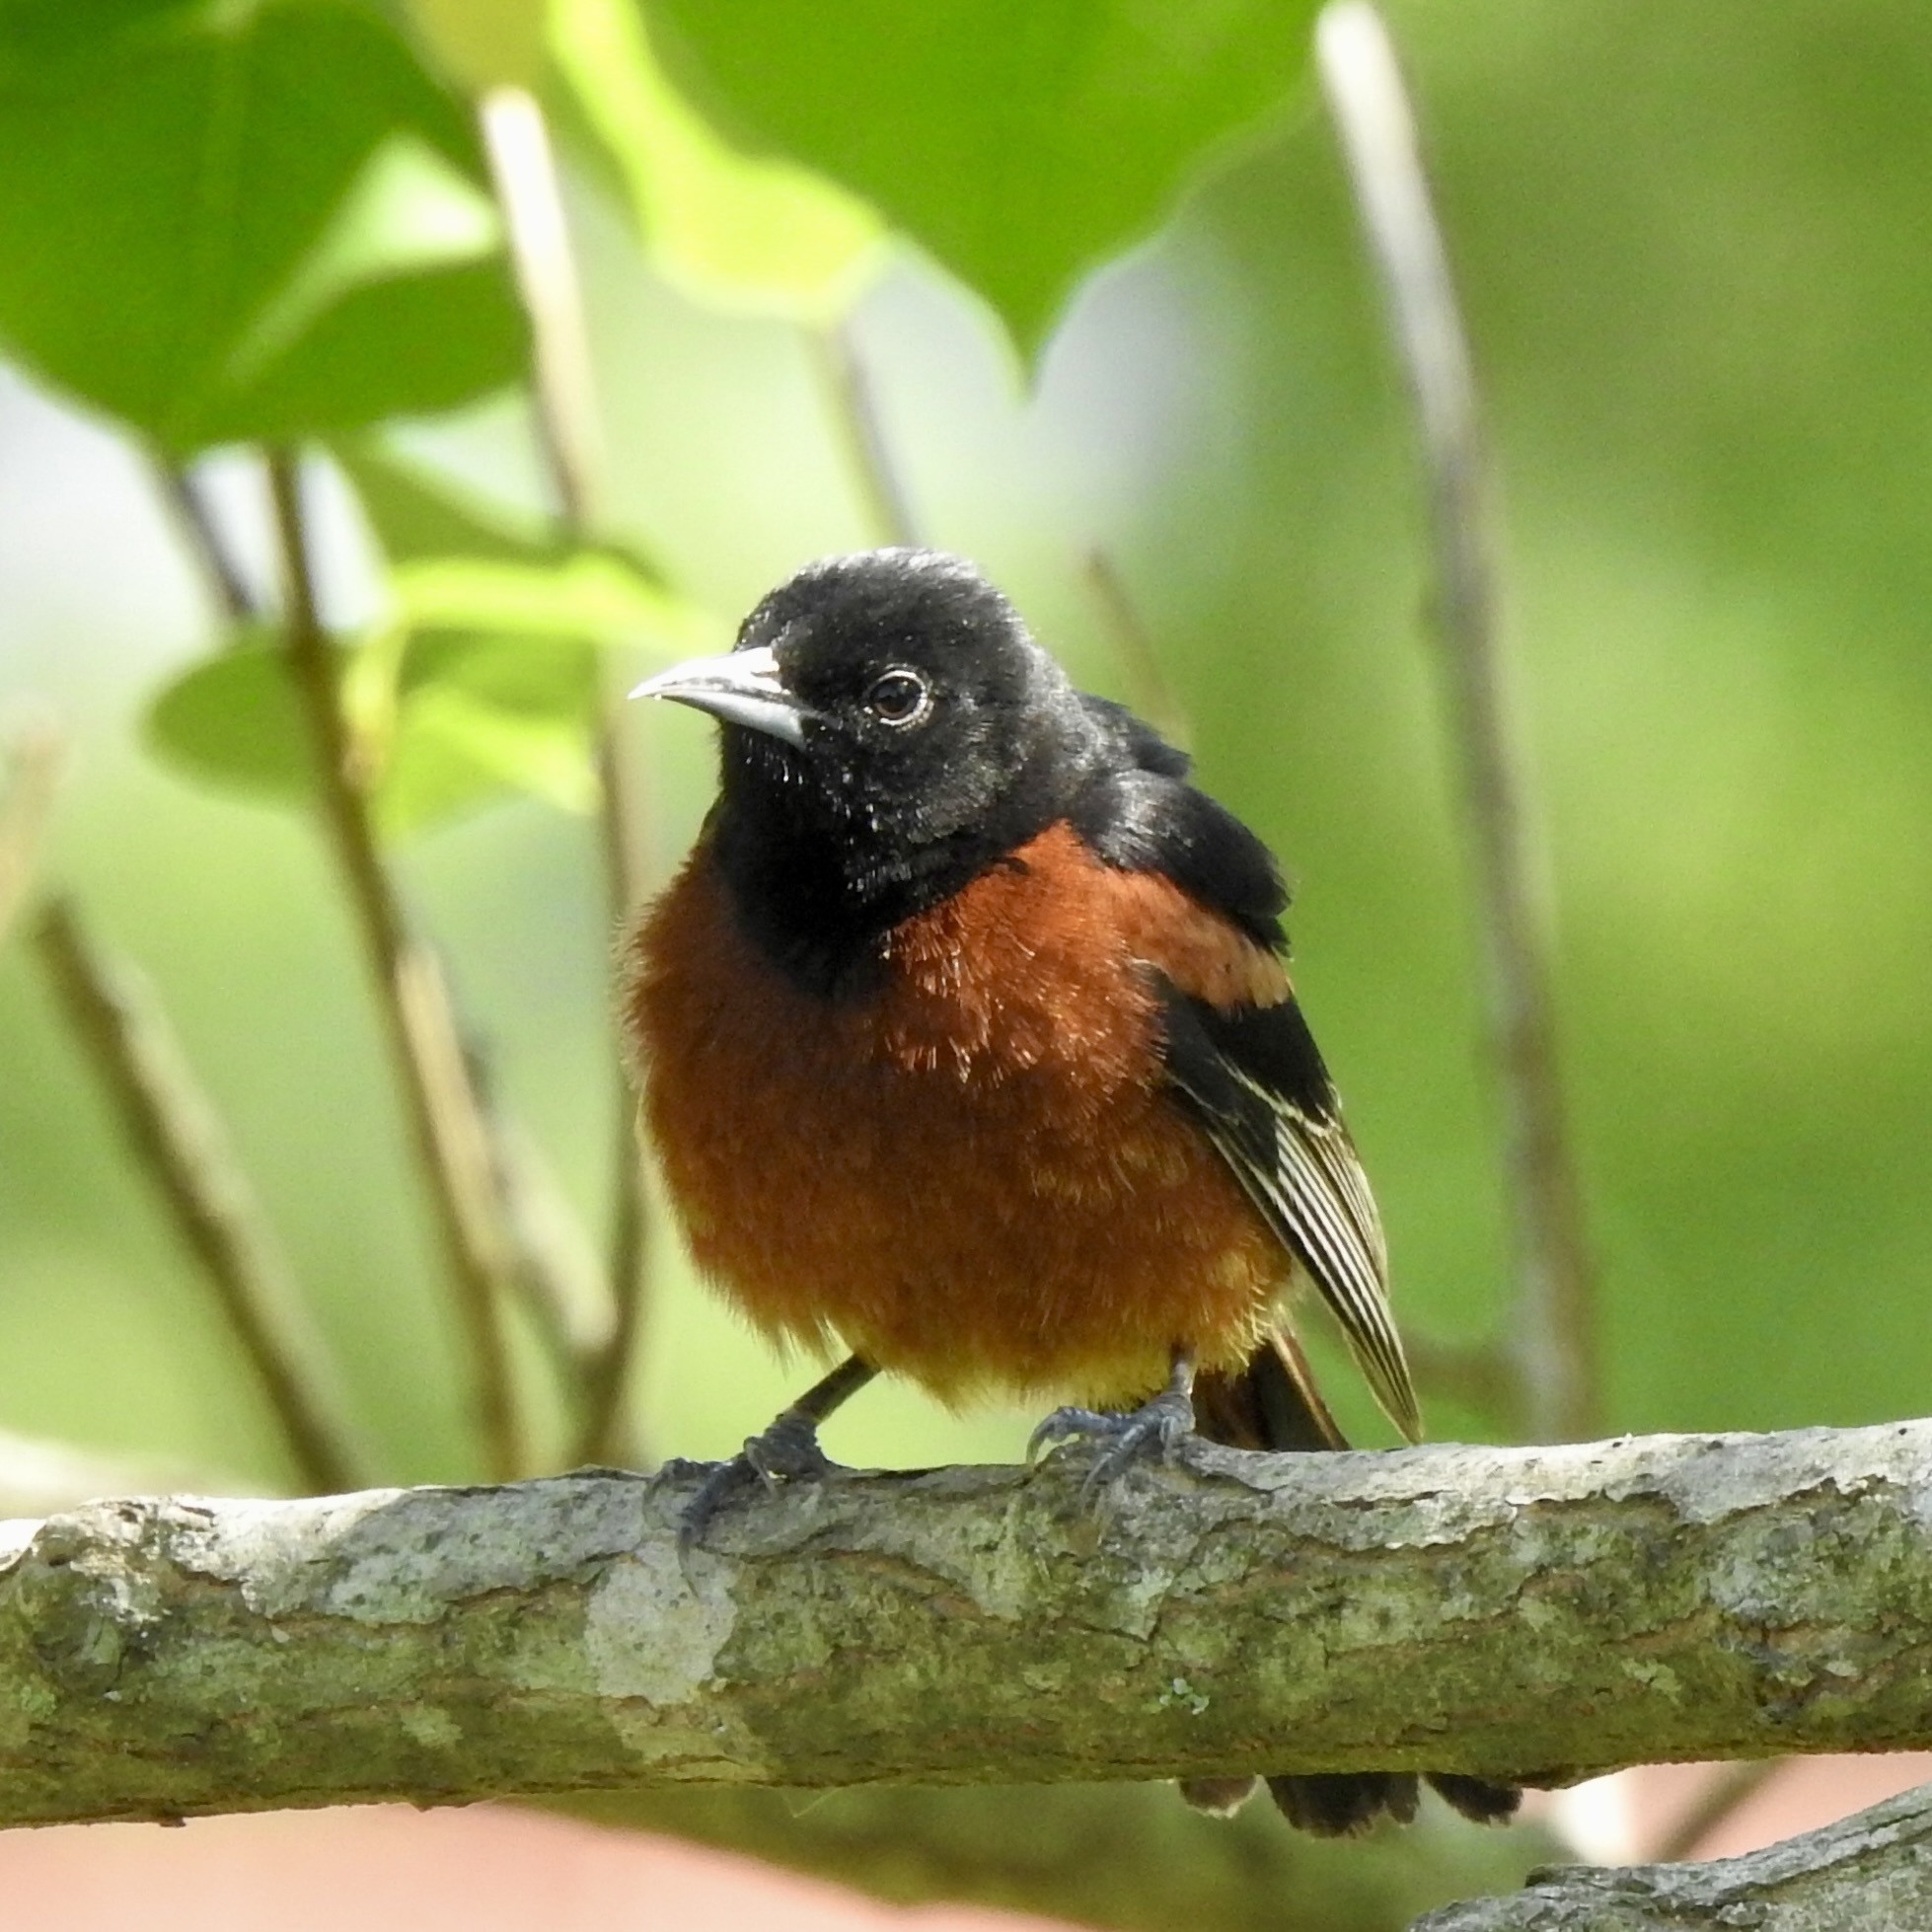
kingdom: Animalia
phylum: Chordata
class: Aves
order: Passeriformes
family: Icteridae
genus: Icterus
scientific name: Icterus spurius
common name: Orchard oriole
